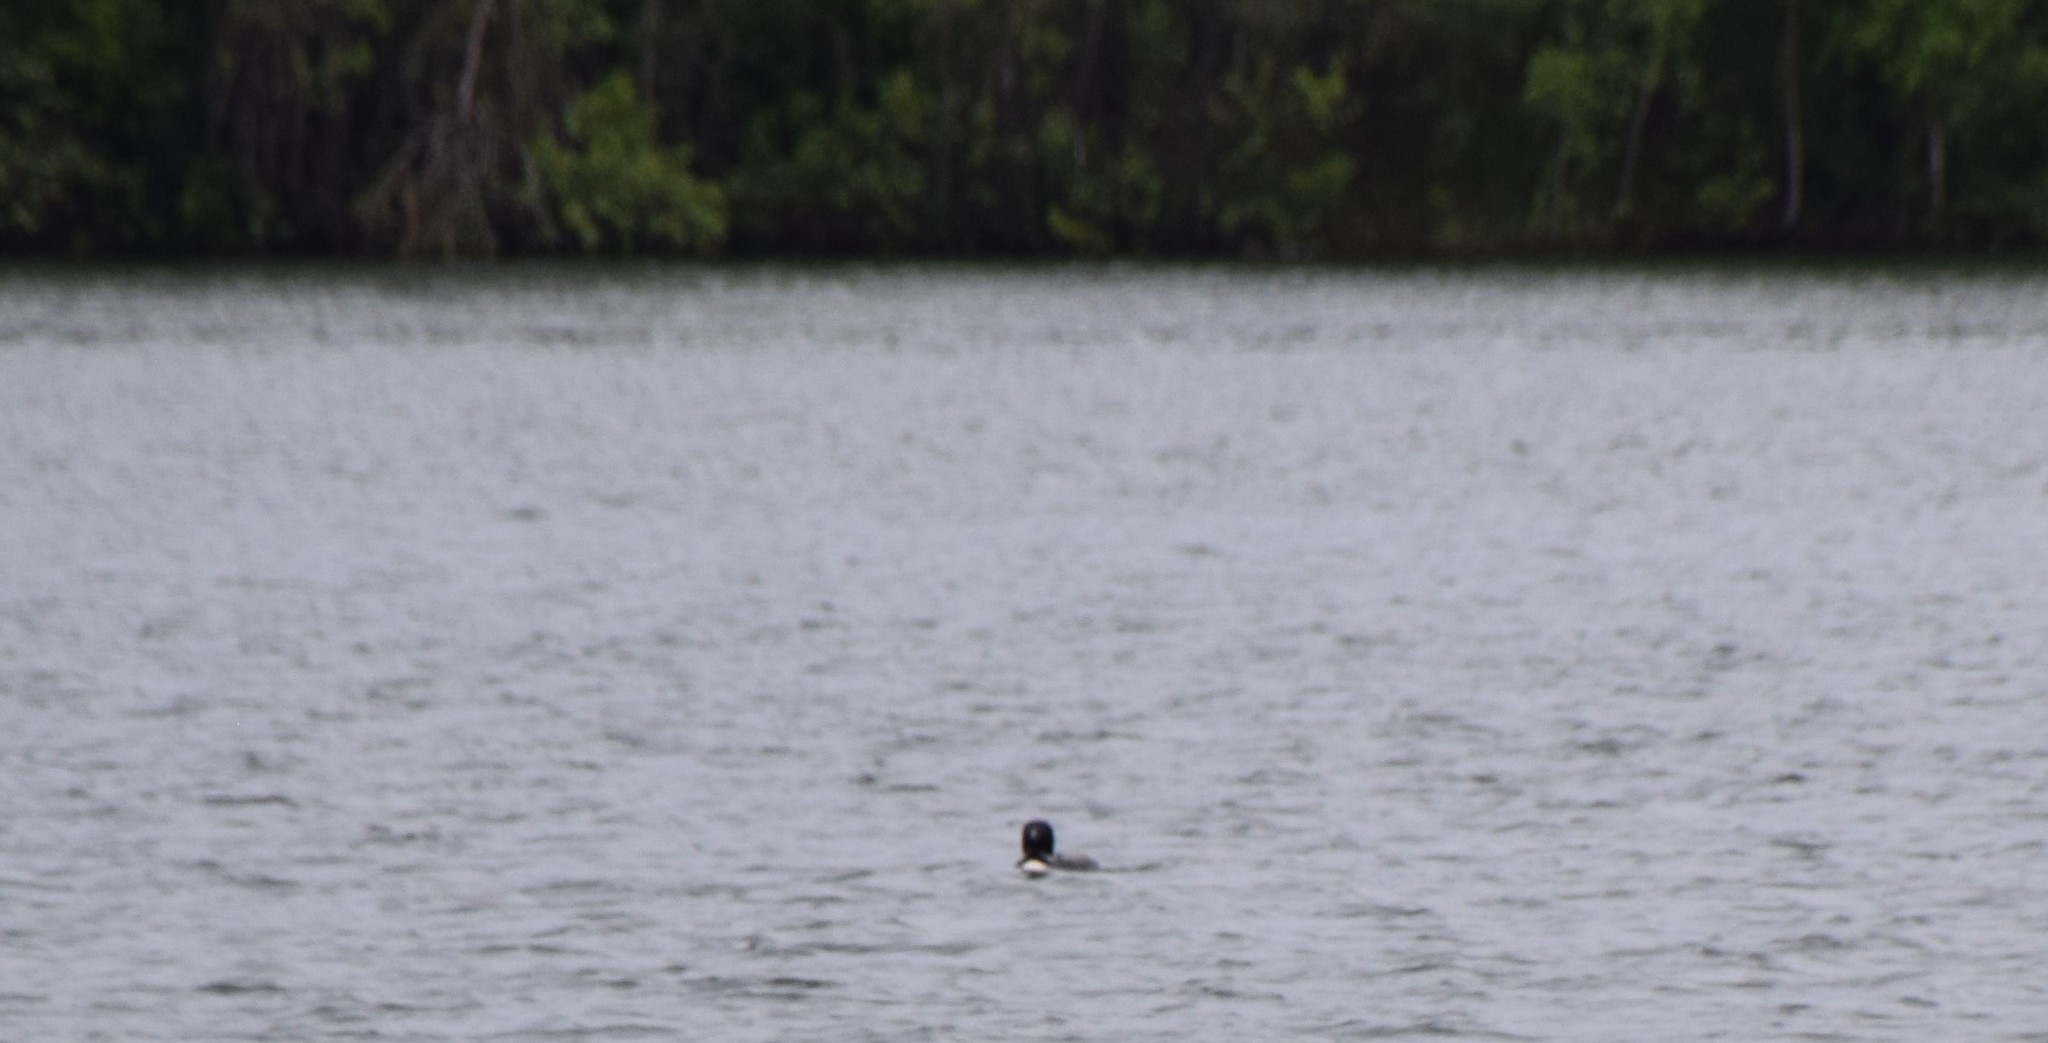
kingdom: Animalia
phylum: Chordata
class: Aves
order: Gaviiformes
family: Gaviidae
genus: Gavia
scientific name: Gavia immer
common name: Common loon
